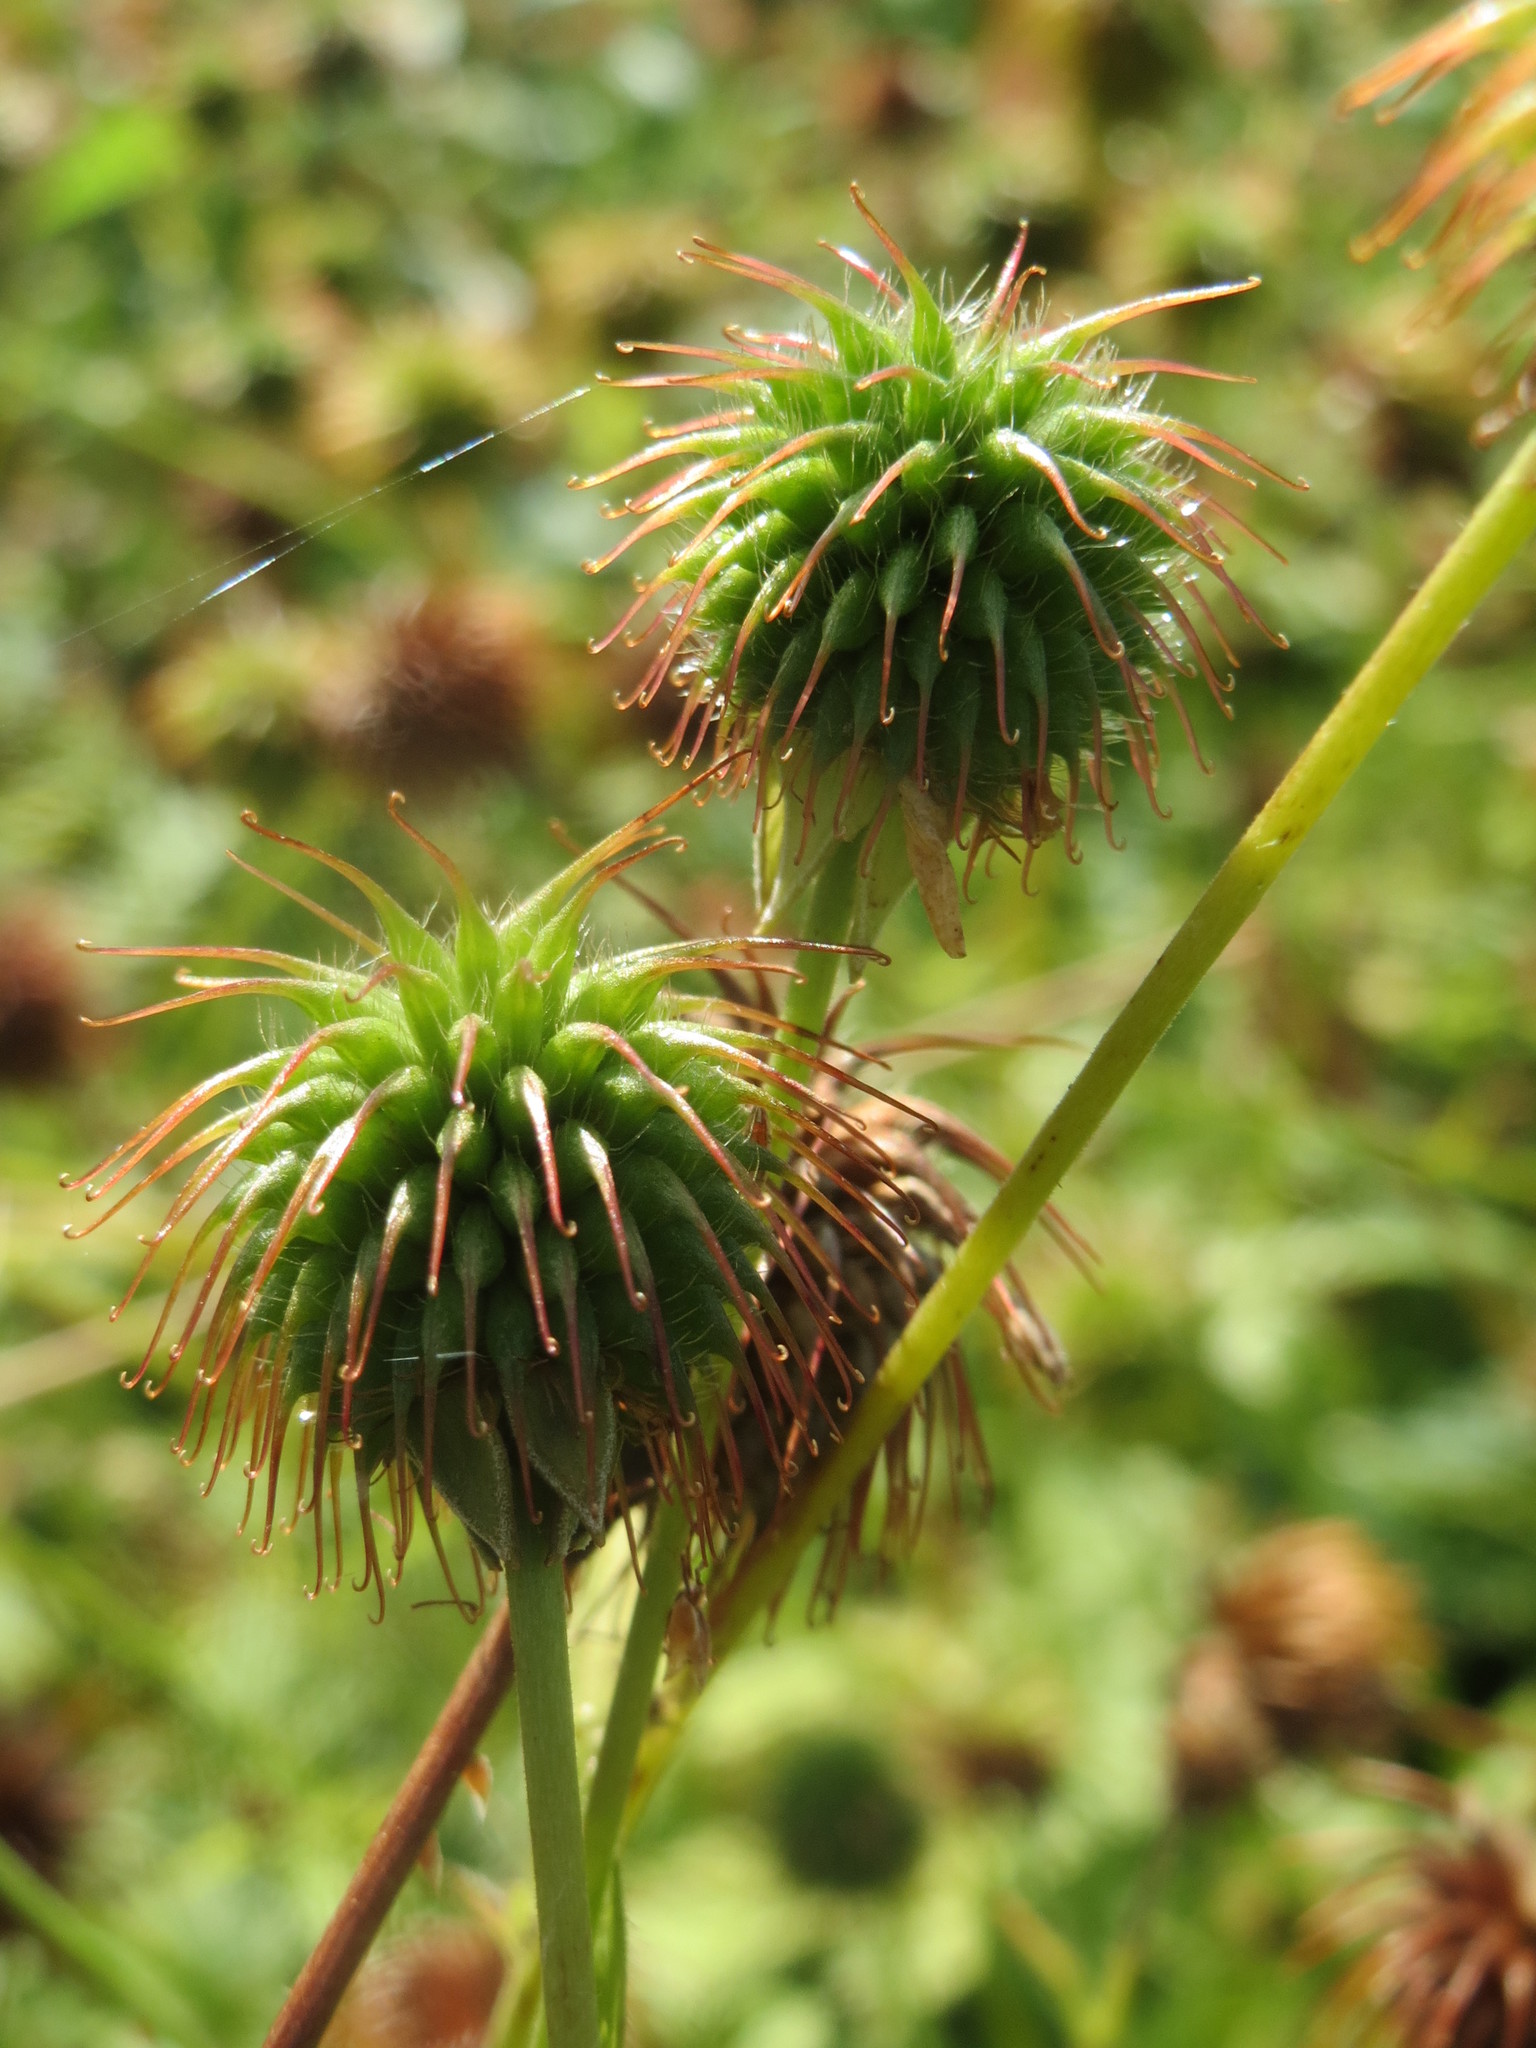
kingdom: Plantae
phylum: Tracheophyta
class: Magnoliopsida
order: Rosales
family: Rosaceae
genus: Geum
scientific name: Geum urbanum
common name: Wood avens
